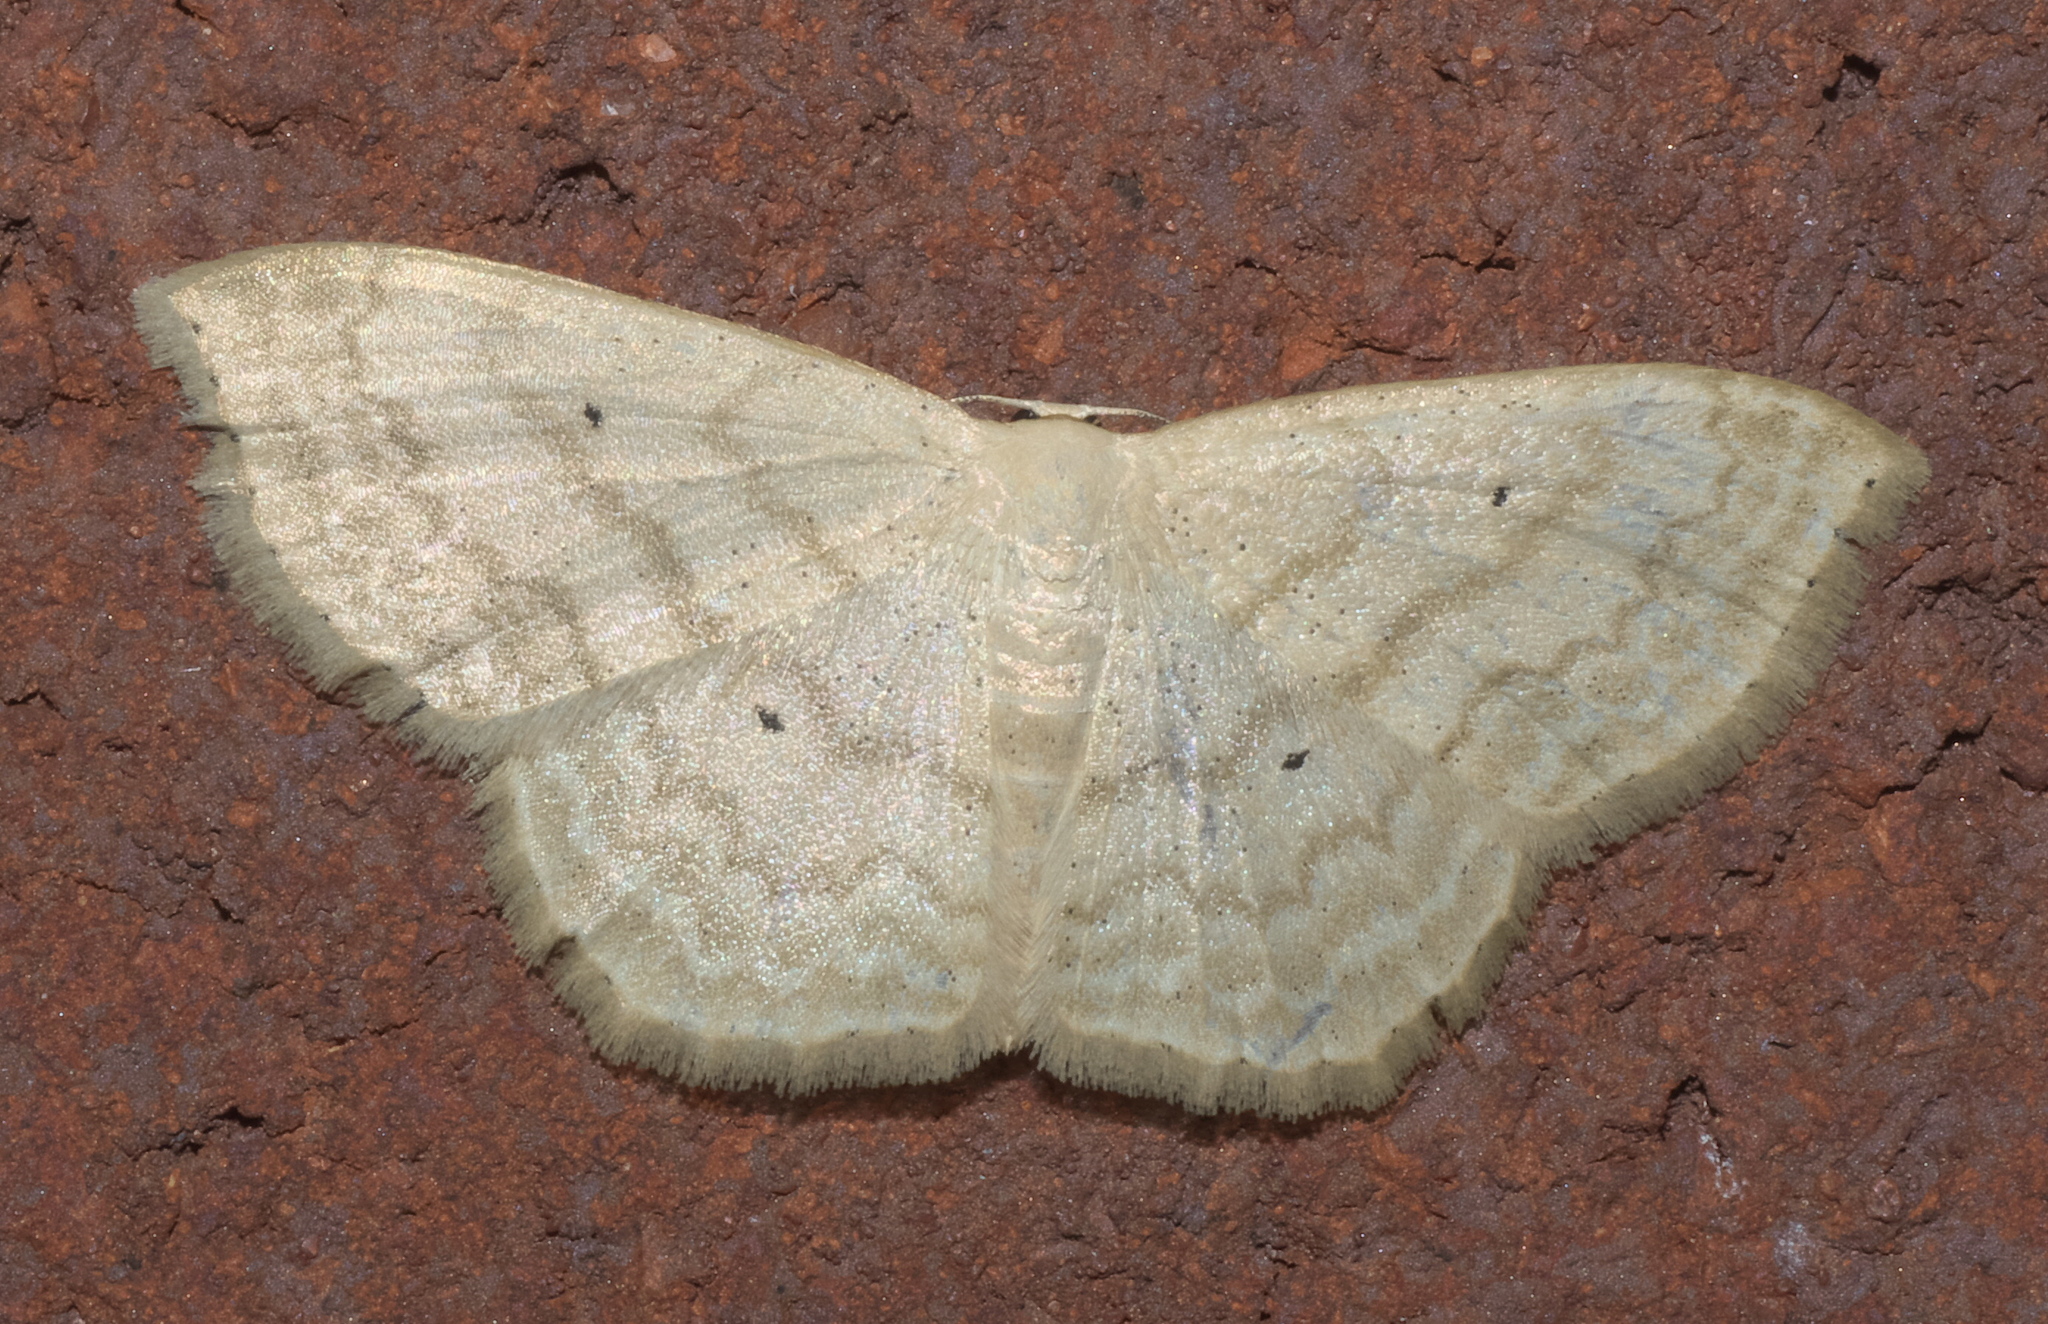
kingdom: Animalia
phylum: Arthropoda
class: Insecta
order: Lepidoptera
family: Geometridae
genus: Scopula
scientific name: Scopula limboundata
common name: Large lace border
